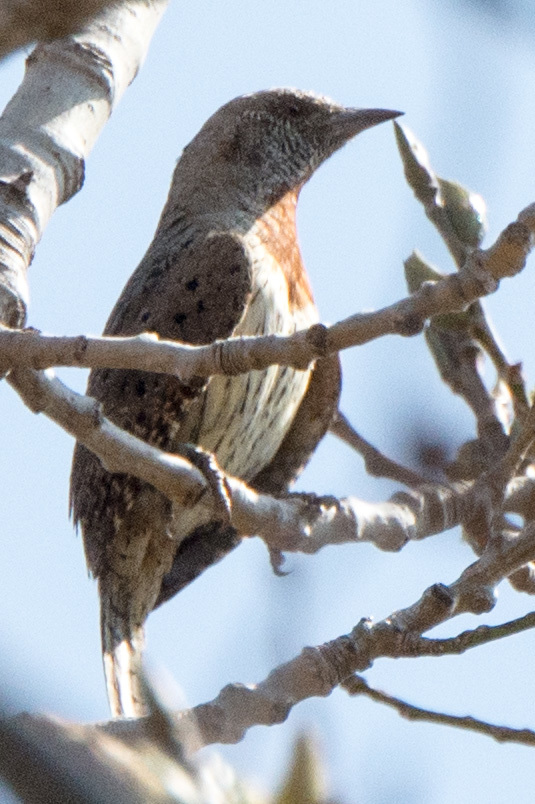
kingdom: Animalia
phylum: Chordata
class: Aves
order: Piciformes
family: Picidae
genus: Jynx
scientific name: Jynx ruficollis
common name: Red-throated wryneck
